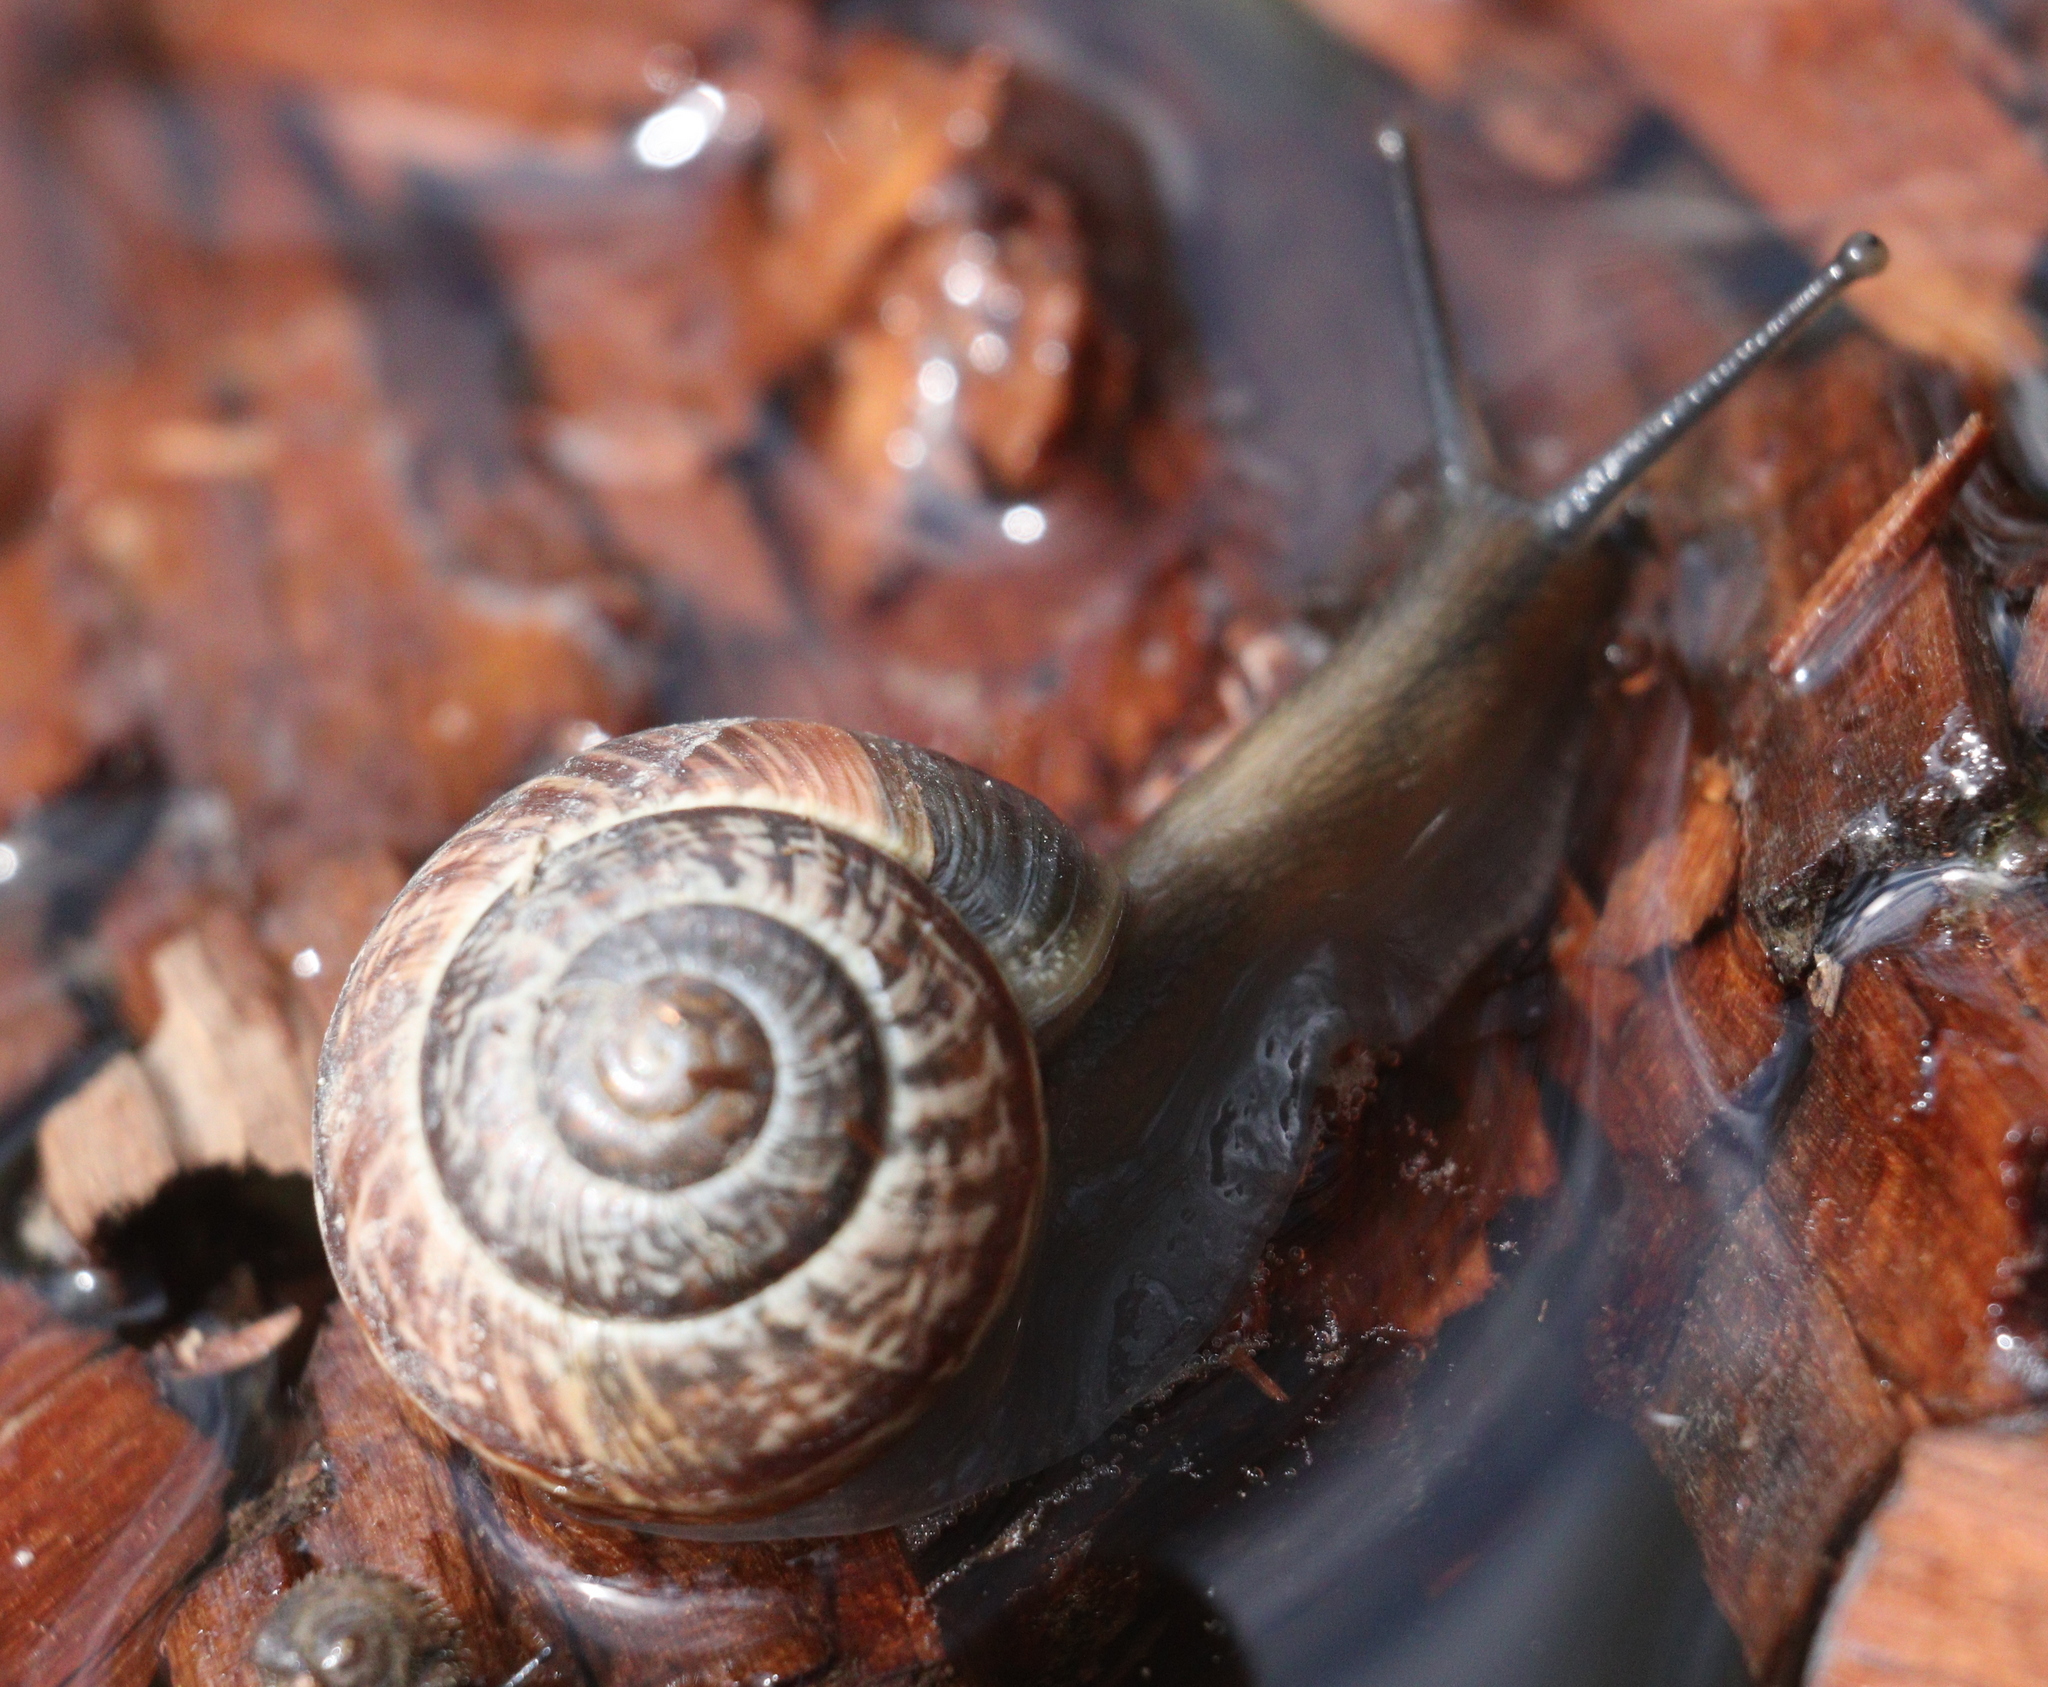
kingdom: Animalia
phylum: Mollusca
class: Gastropoda
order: Stylommatophora
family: Helicidae
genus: Arianta
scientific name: Arianta arbustorum
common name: Copse snail
